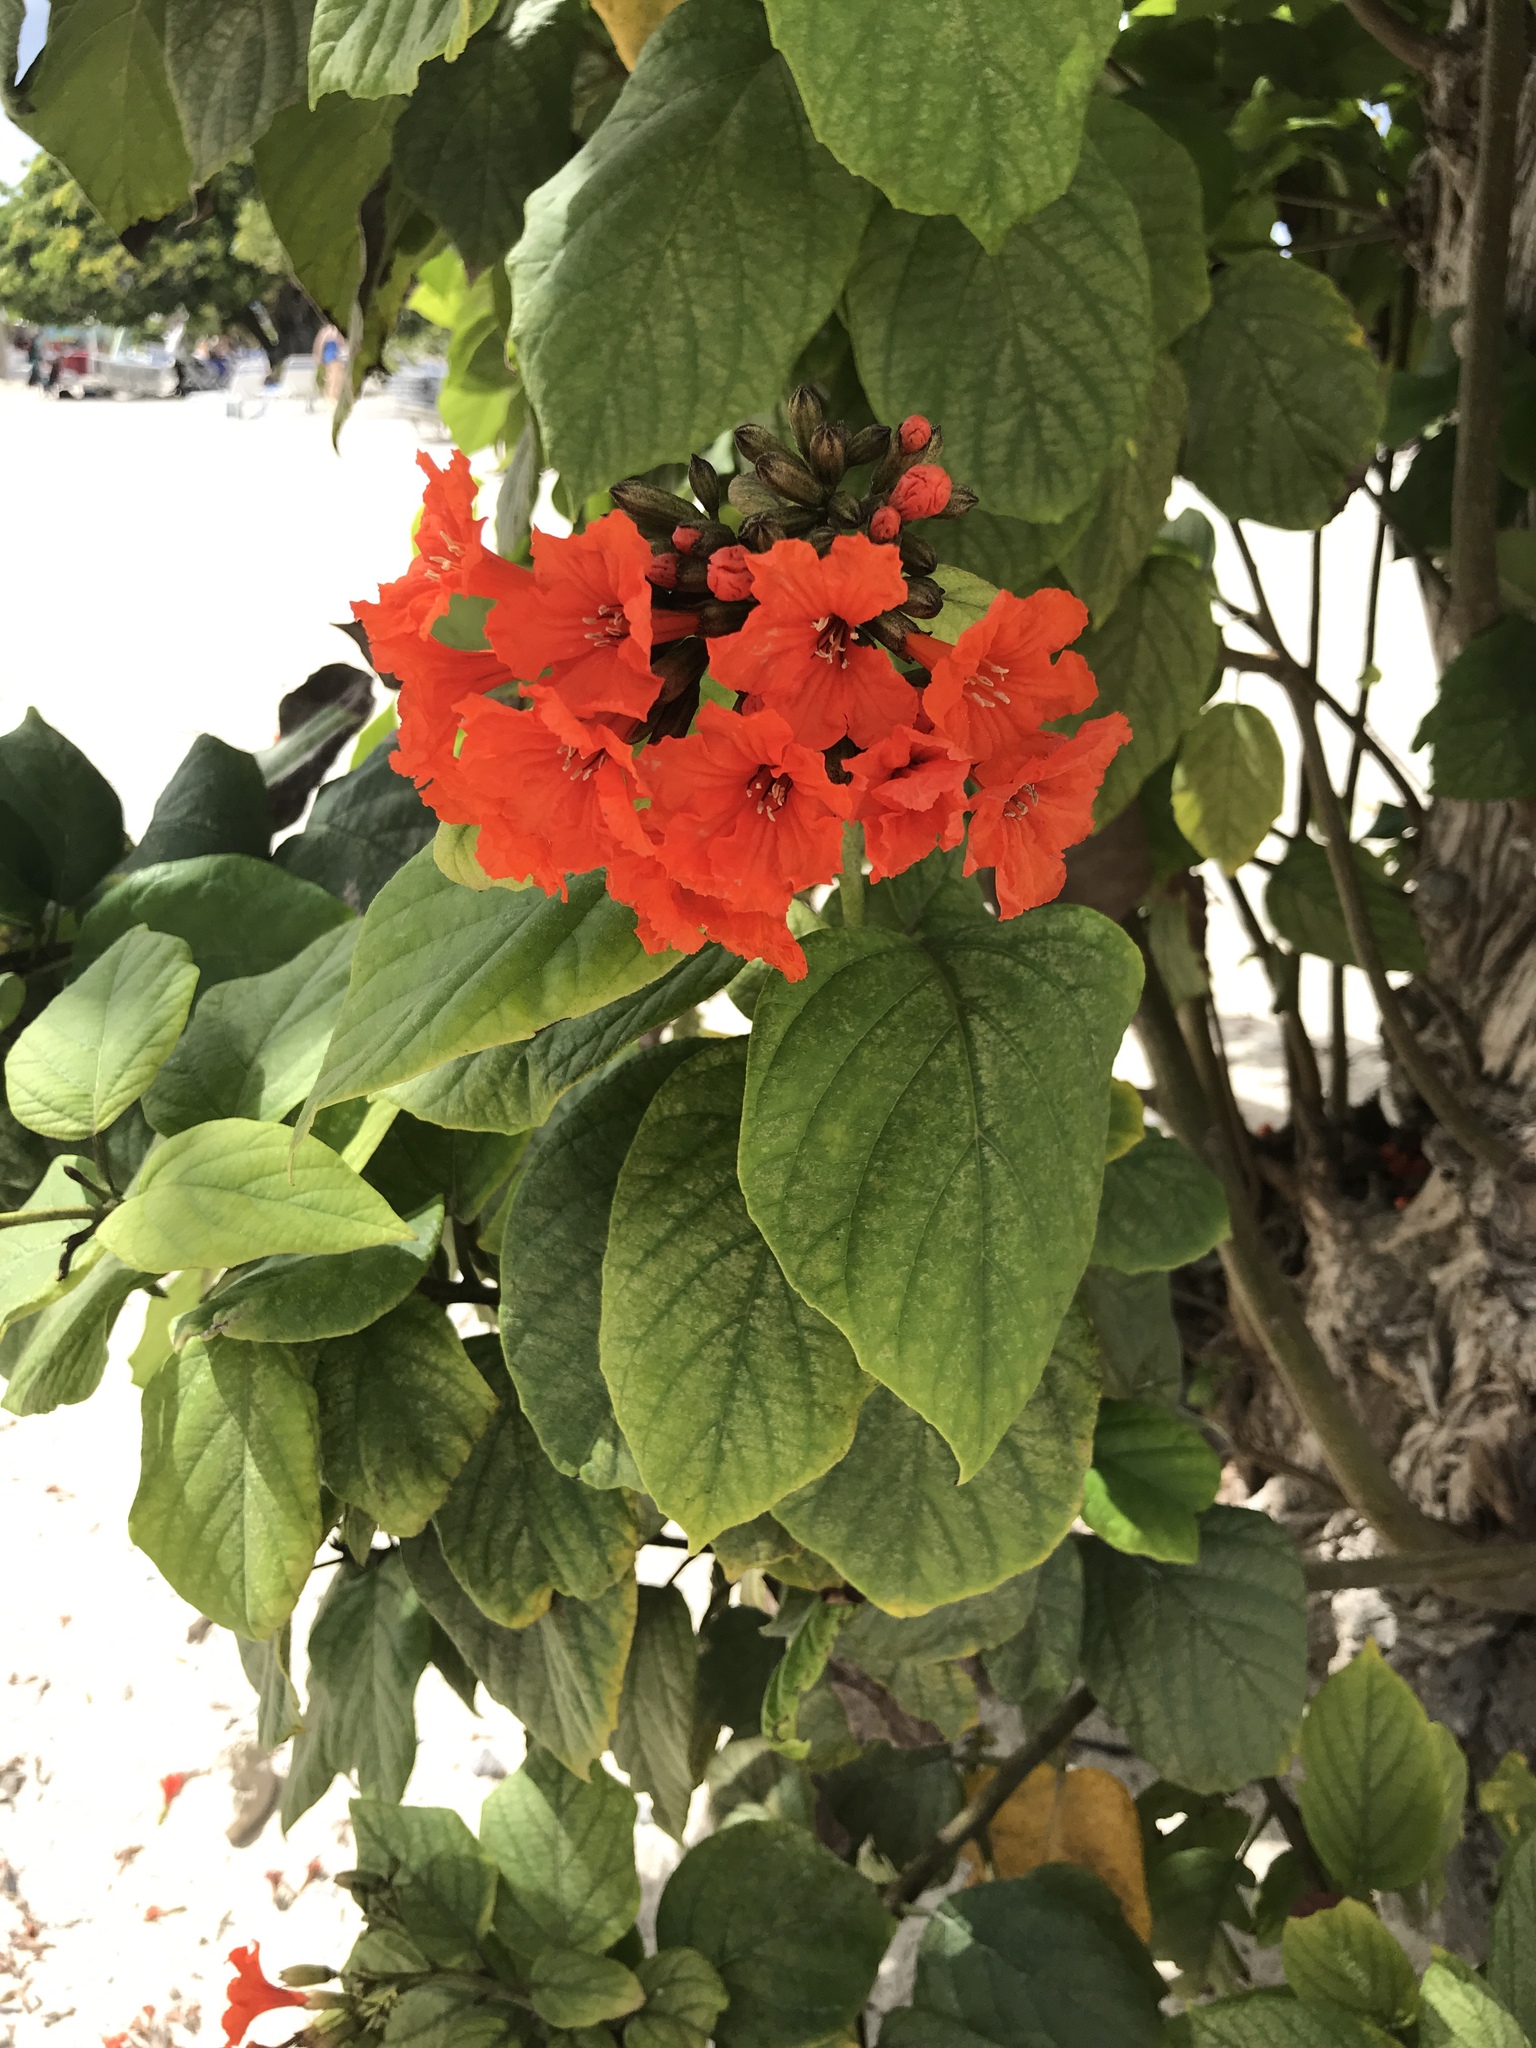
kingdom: Plantae
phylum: Tracheophyta
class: Magnoliopsida
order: Boraginales
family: Cordiaceae
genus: Cordia
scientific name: Cordia sebestena
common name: Largeleaf geigertree
